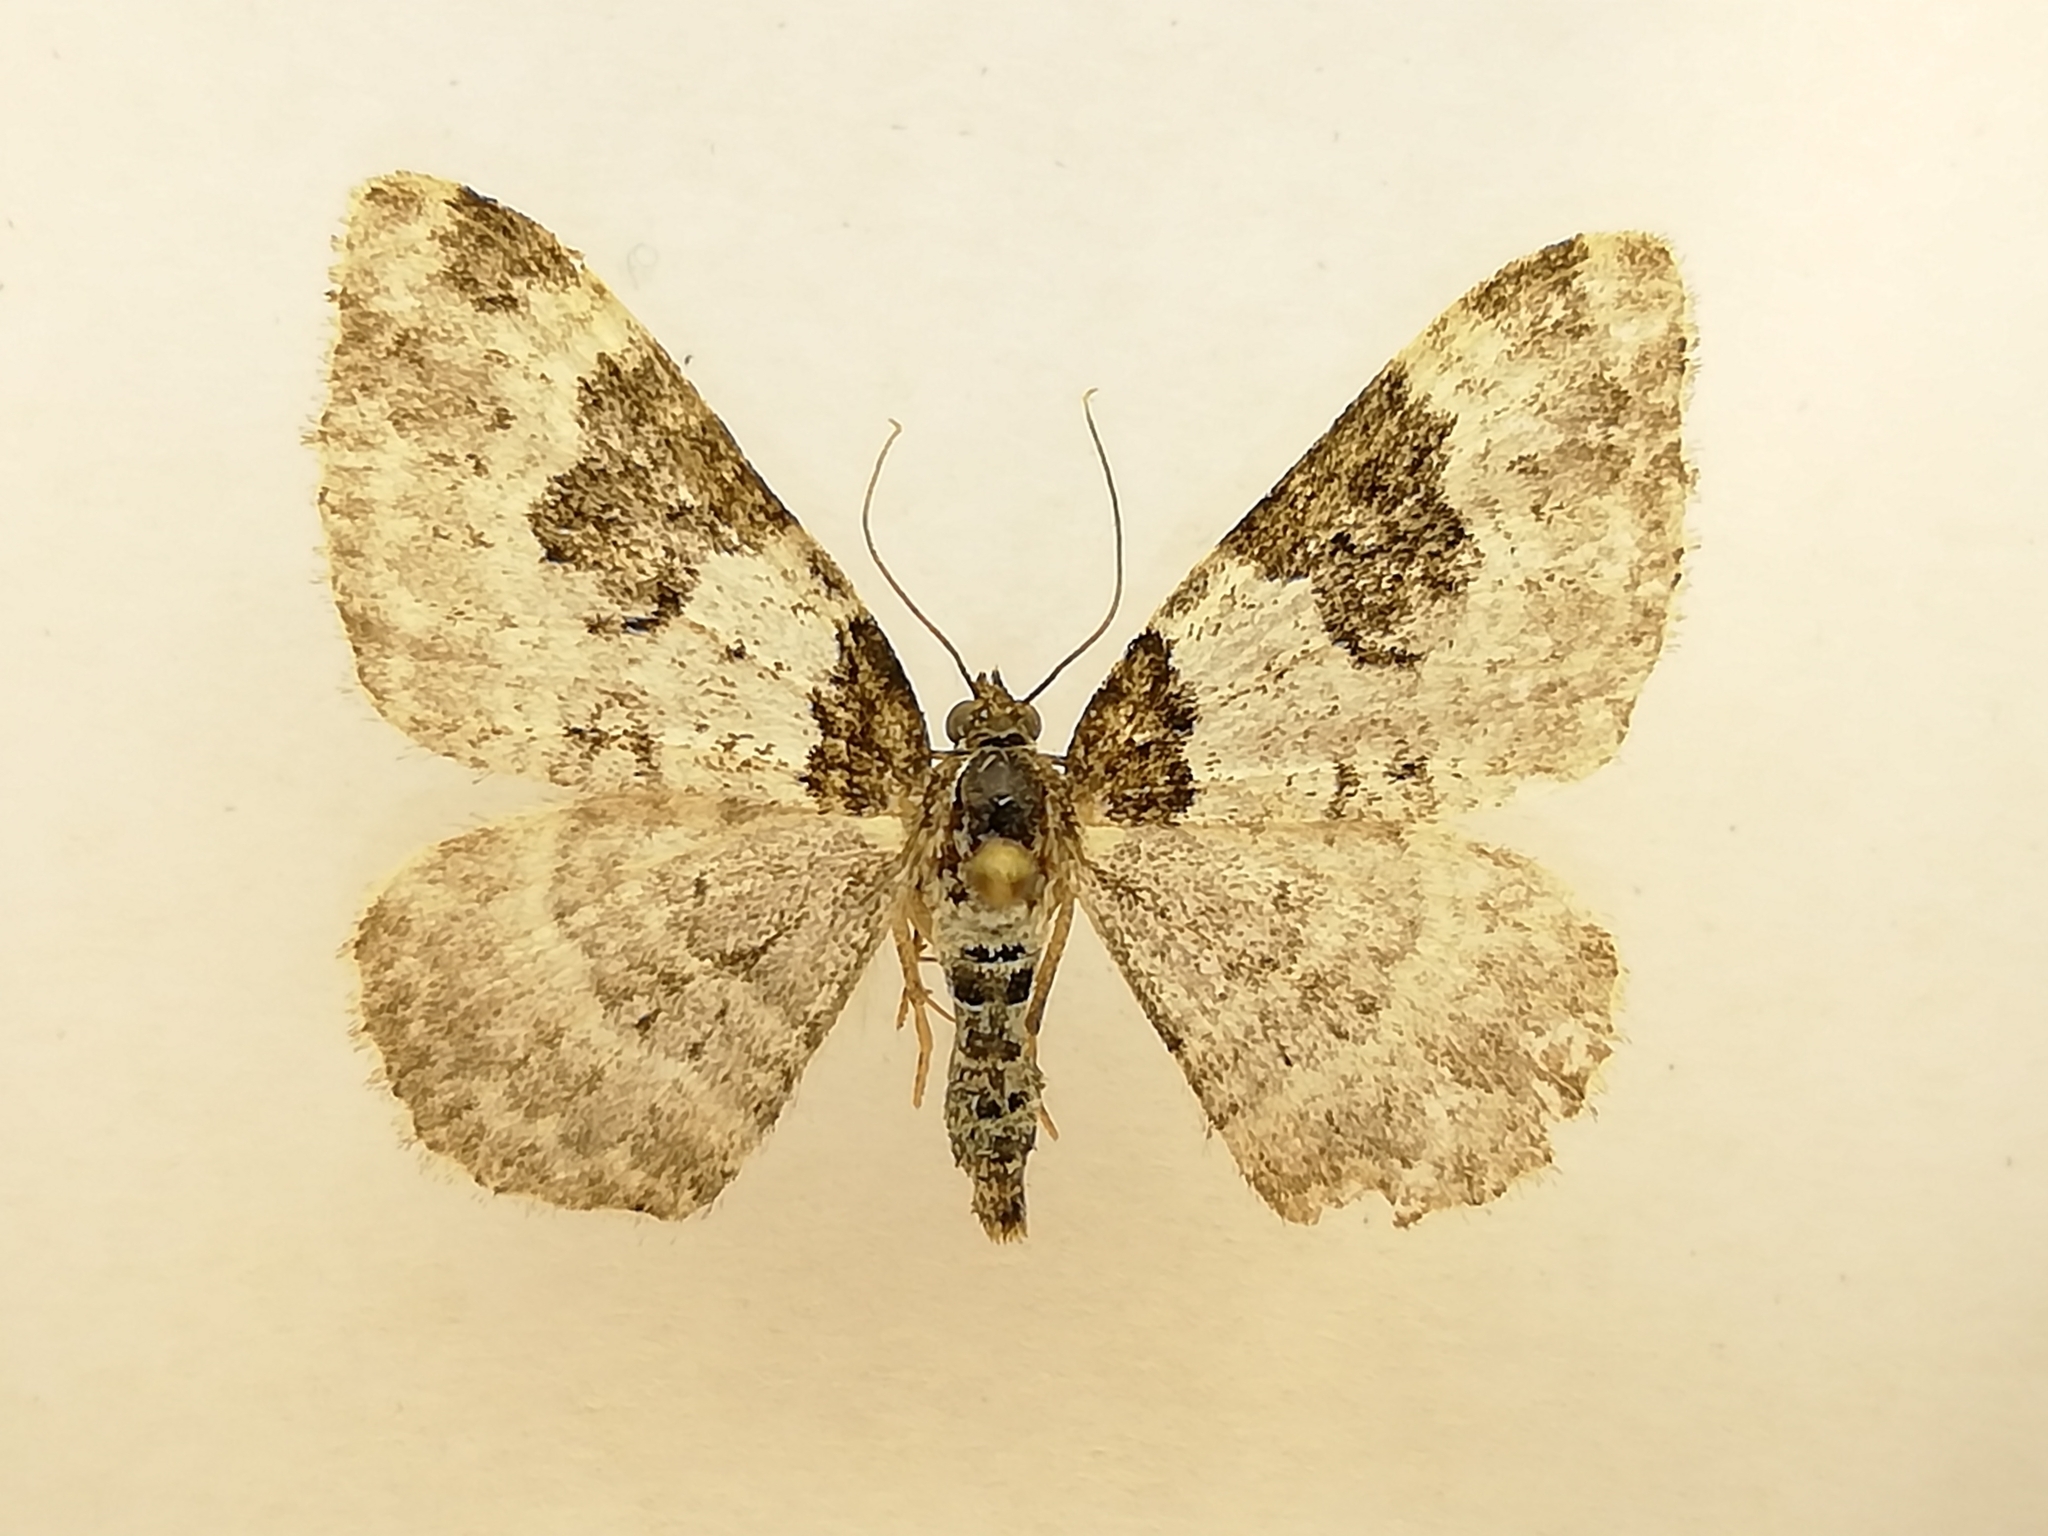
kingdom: Animalia
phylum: Arthropoda
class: Insecta
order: Lepidoptera
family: Geometridae
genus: Xanthorhoe
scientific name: Xanthorhoe fluctuata
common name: Garden carpet
